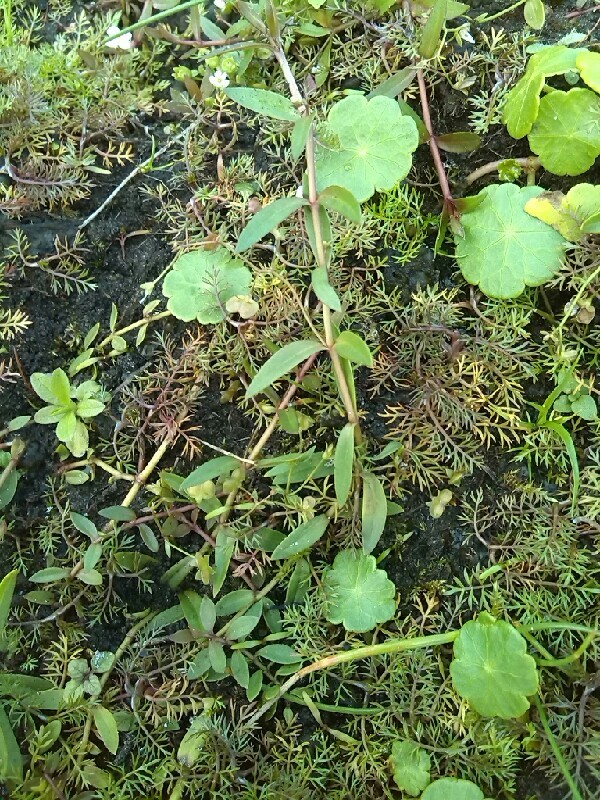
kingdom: Plantae
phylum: Tracheophyta
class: Magnoliopsida
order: Lamiales
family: Plantaginaceae
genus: Veronica
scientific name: Veronica scutellata
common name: Marsh speedwell
